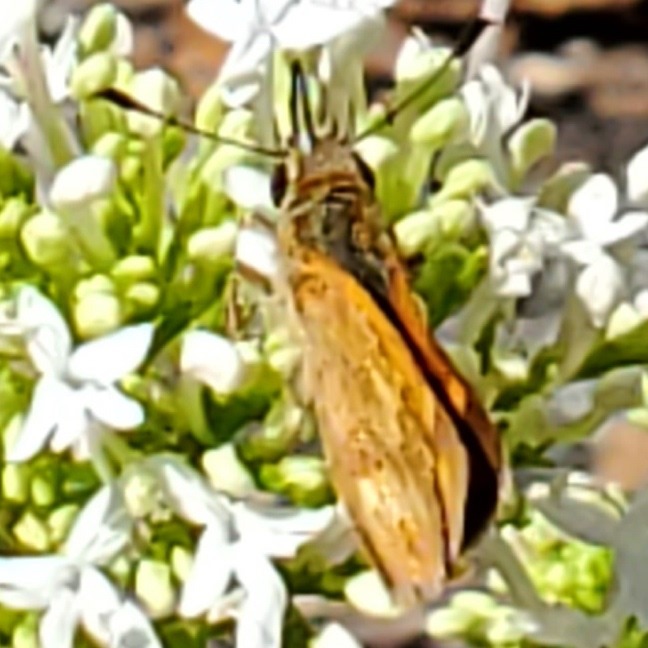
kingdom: Animalia
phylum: Arthropoda
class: Insecta
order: Lepidoptera
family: Hesperiidae
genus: Ochlodes
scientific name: Ochlodes sylvanoides
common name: Woodland skipper
